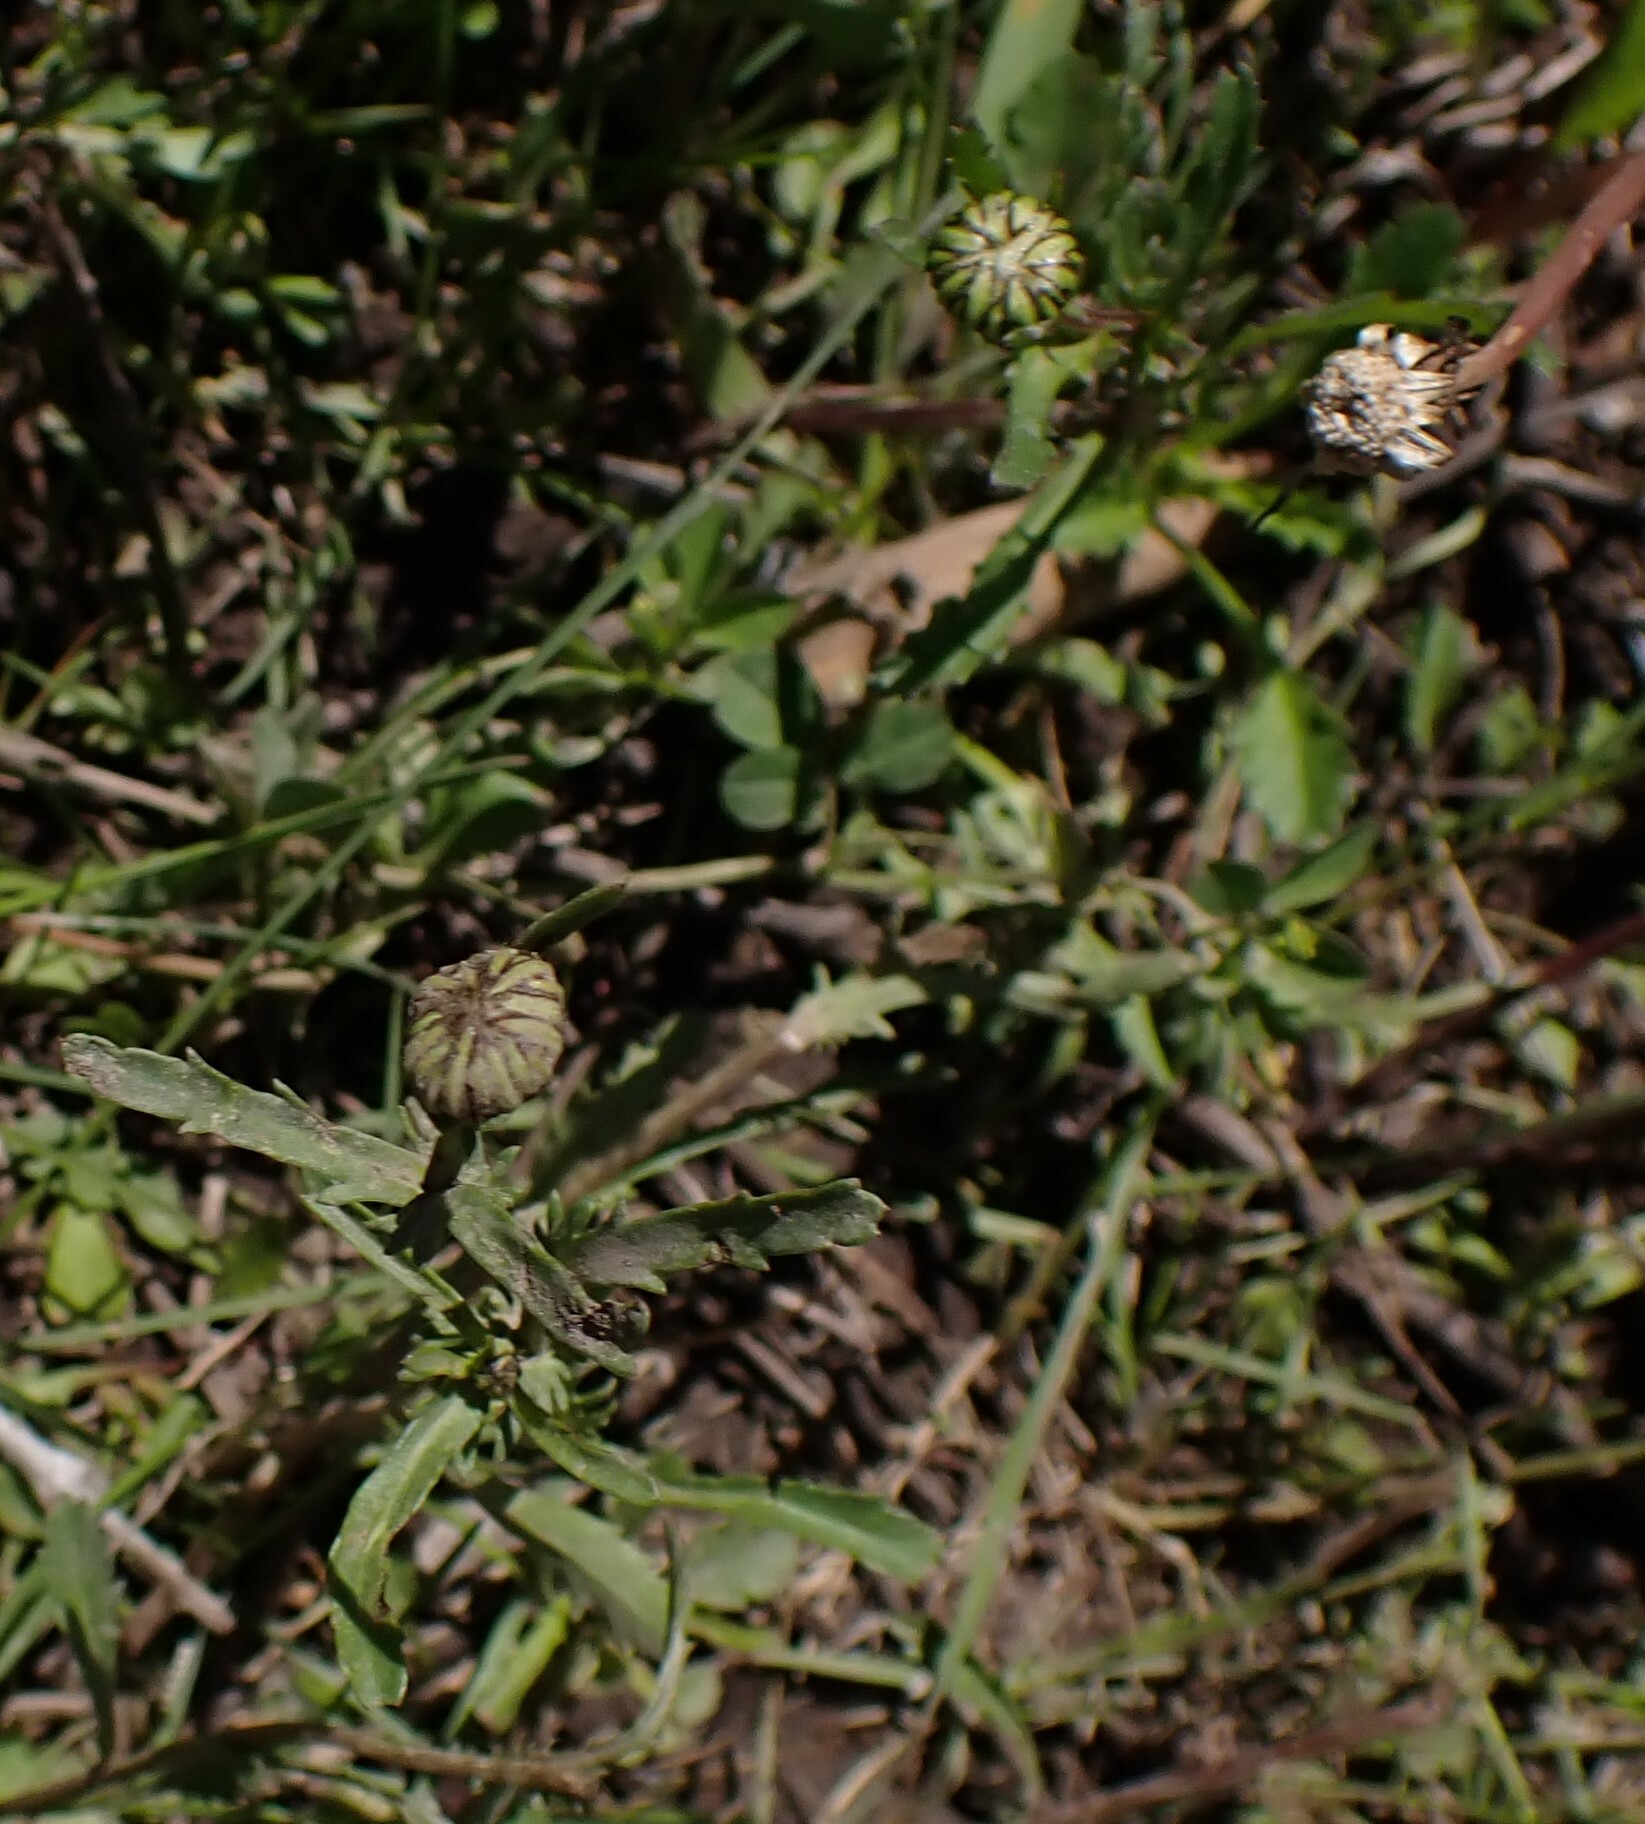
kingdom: Plantae
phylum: Tracheophyta
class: Magnoliopsida
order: Asterales
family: Asteraceae
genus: Leucanthemum
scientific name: Leucanthemum vulgare
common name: Oxeye daisy
